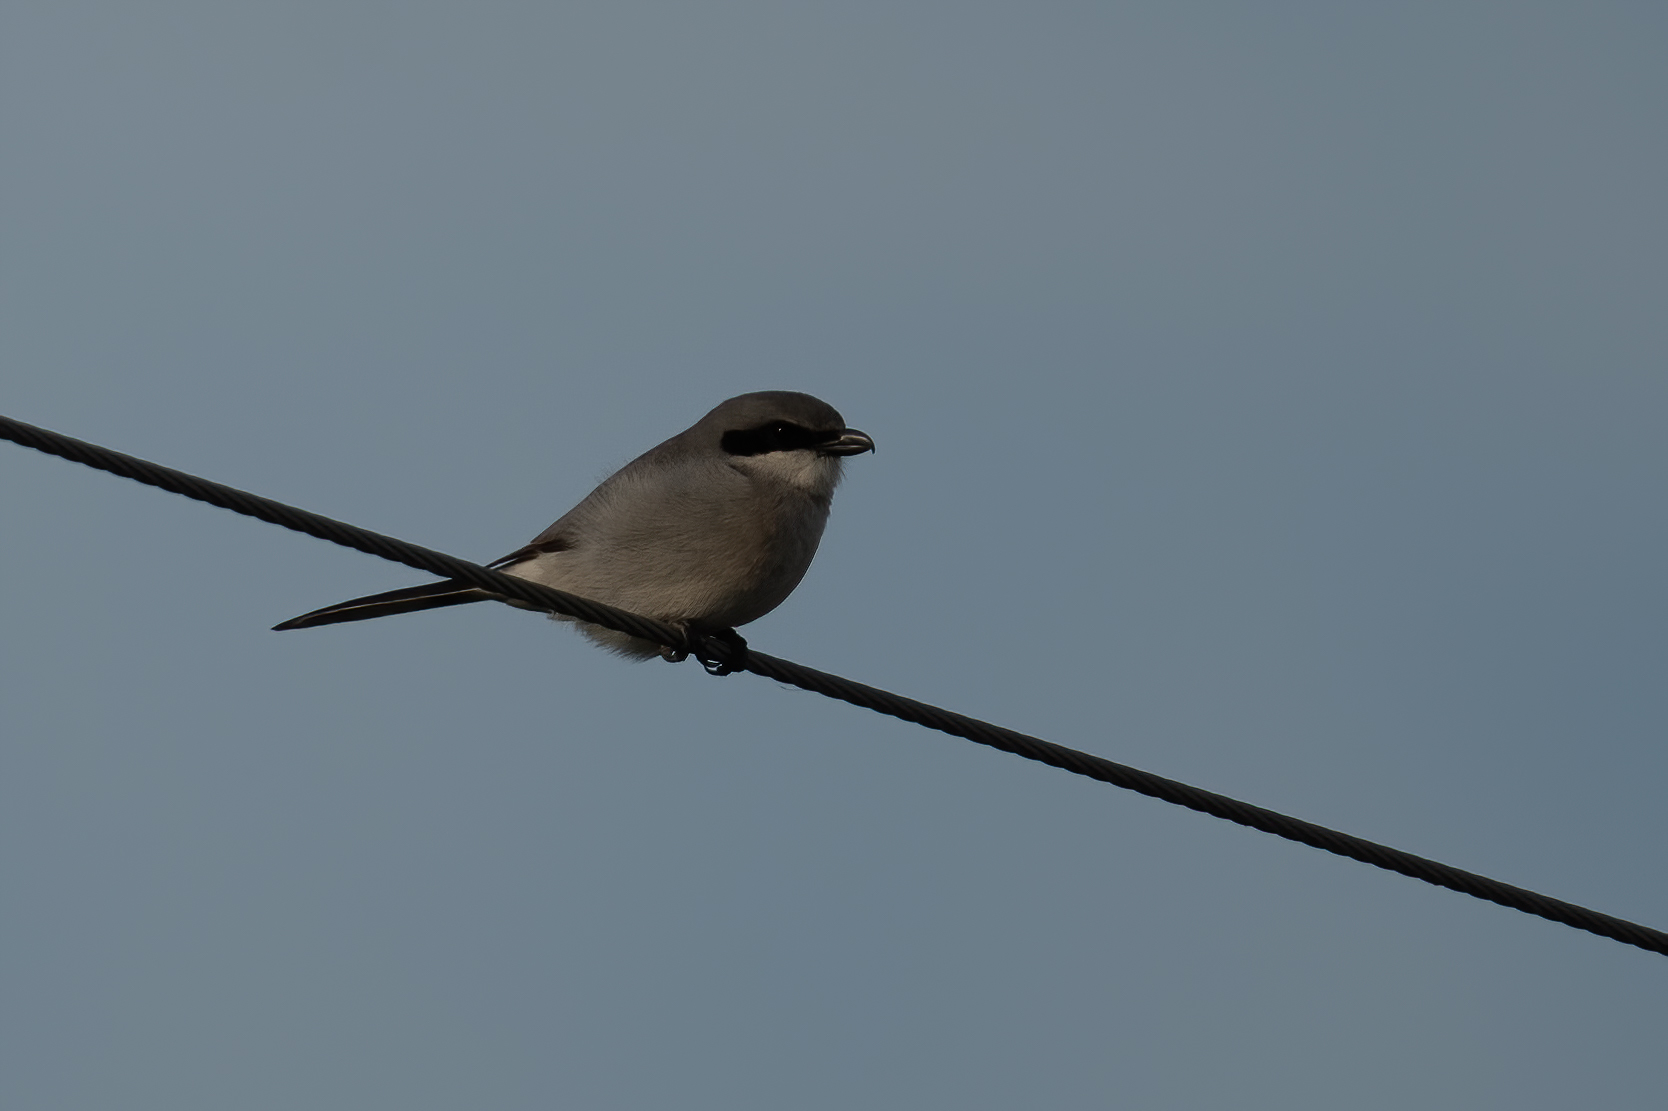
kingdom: Animalia
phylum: Chordata
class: Aves
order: Passeriformes
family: Laniidae
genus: Lanius
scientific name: Lanius ludovicianus
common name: Loggerhead shrike
